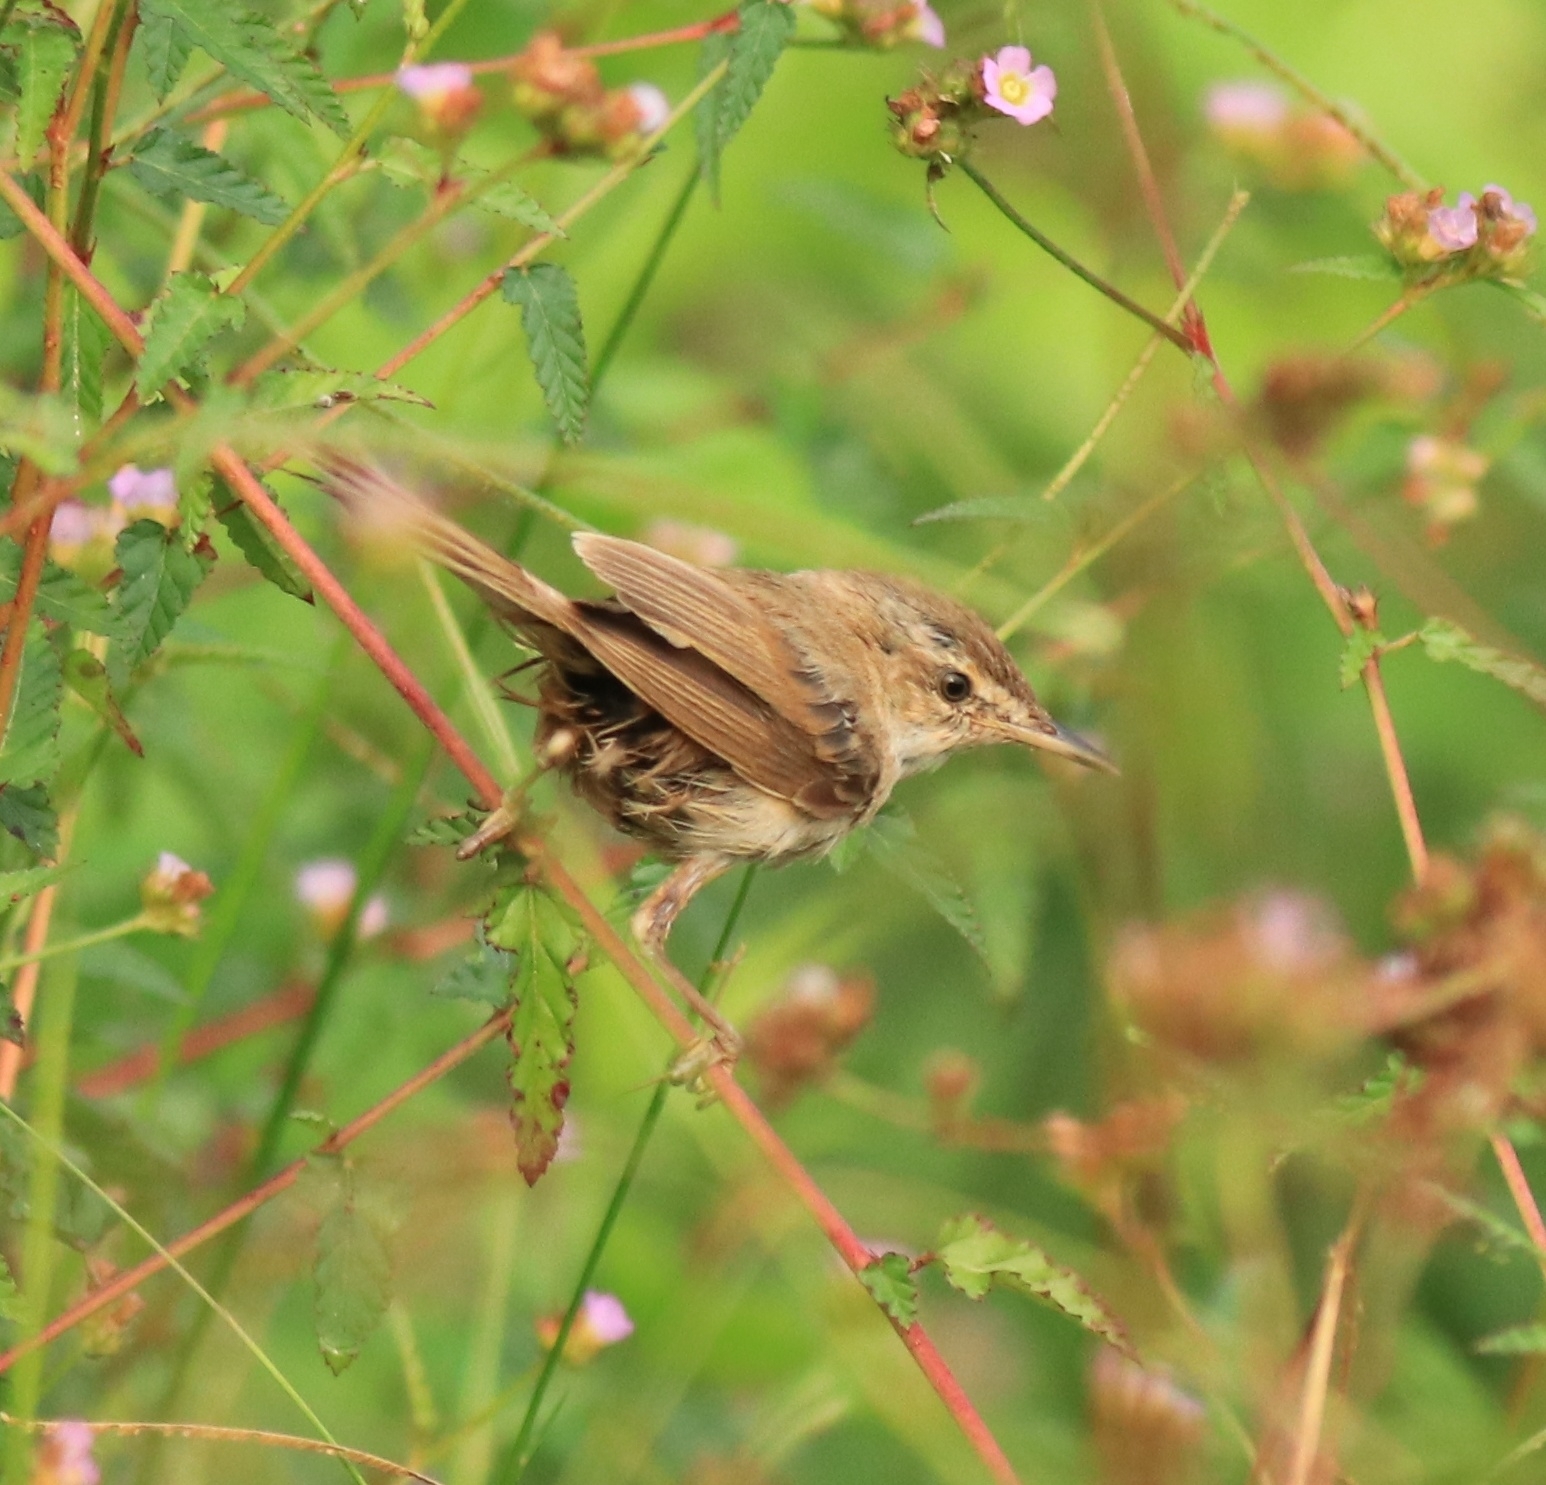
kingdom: Animalia
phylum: Chordata
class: Aves
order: Passeriformes
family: Acrocephalidae
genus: Acrocephalus
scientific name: Acrocephalus agricola
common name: Paddyfield warbler
